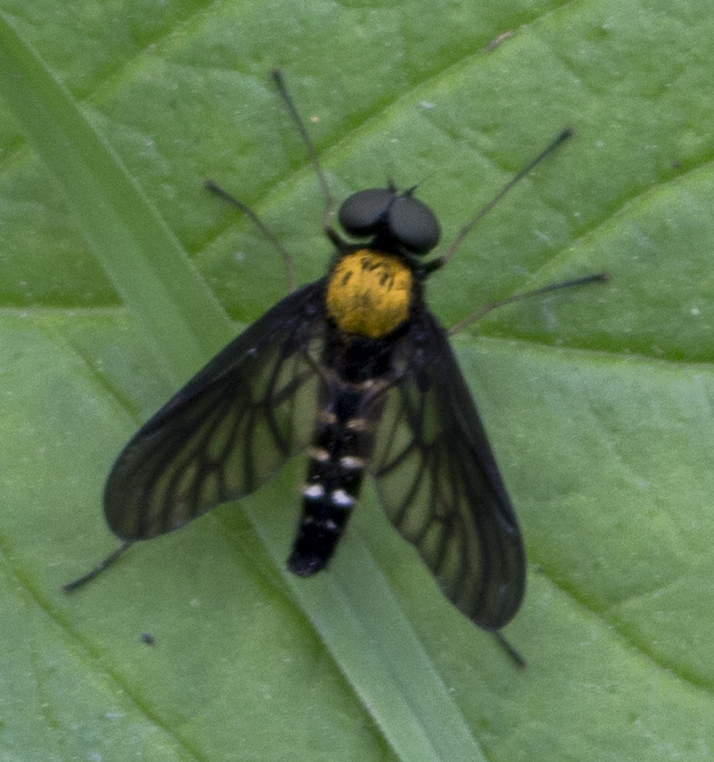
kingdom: Animalia
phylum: Arthropoda
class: Insecta
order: Diptera
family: Rhagionidae
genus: Chrysopilus
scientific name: Chrysopilus thoracicus
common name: Golden-backed snipe fly
